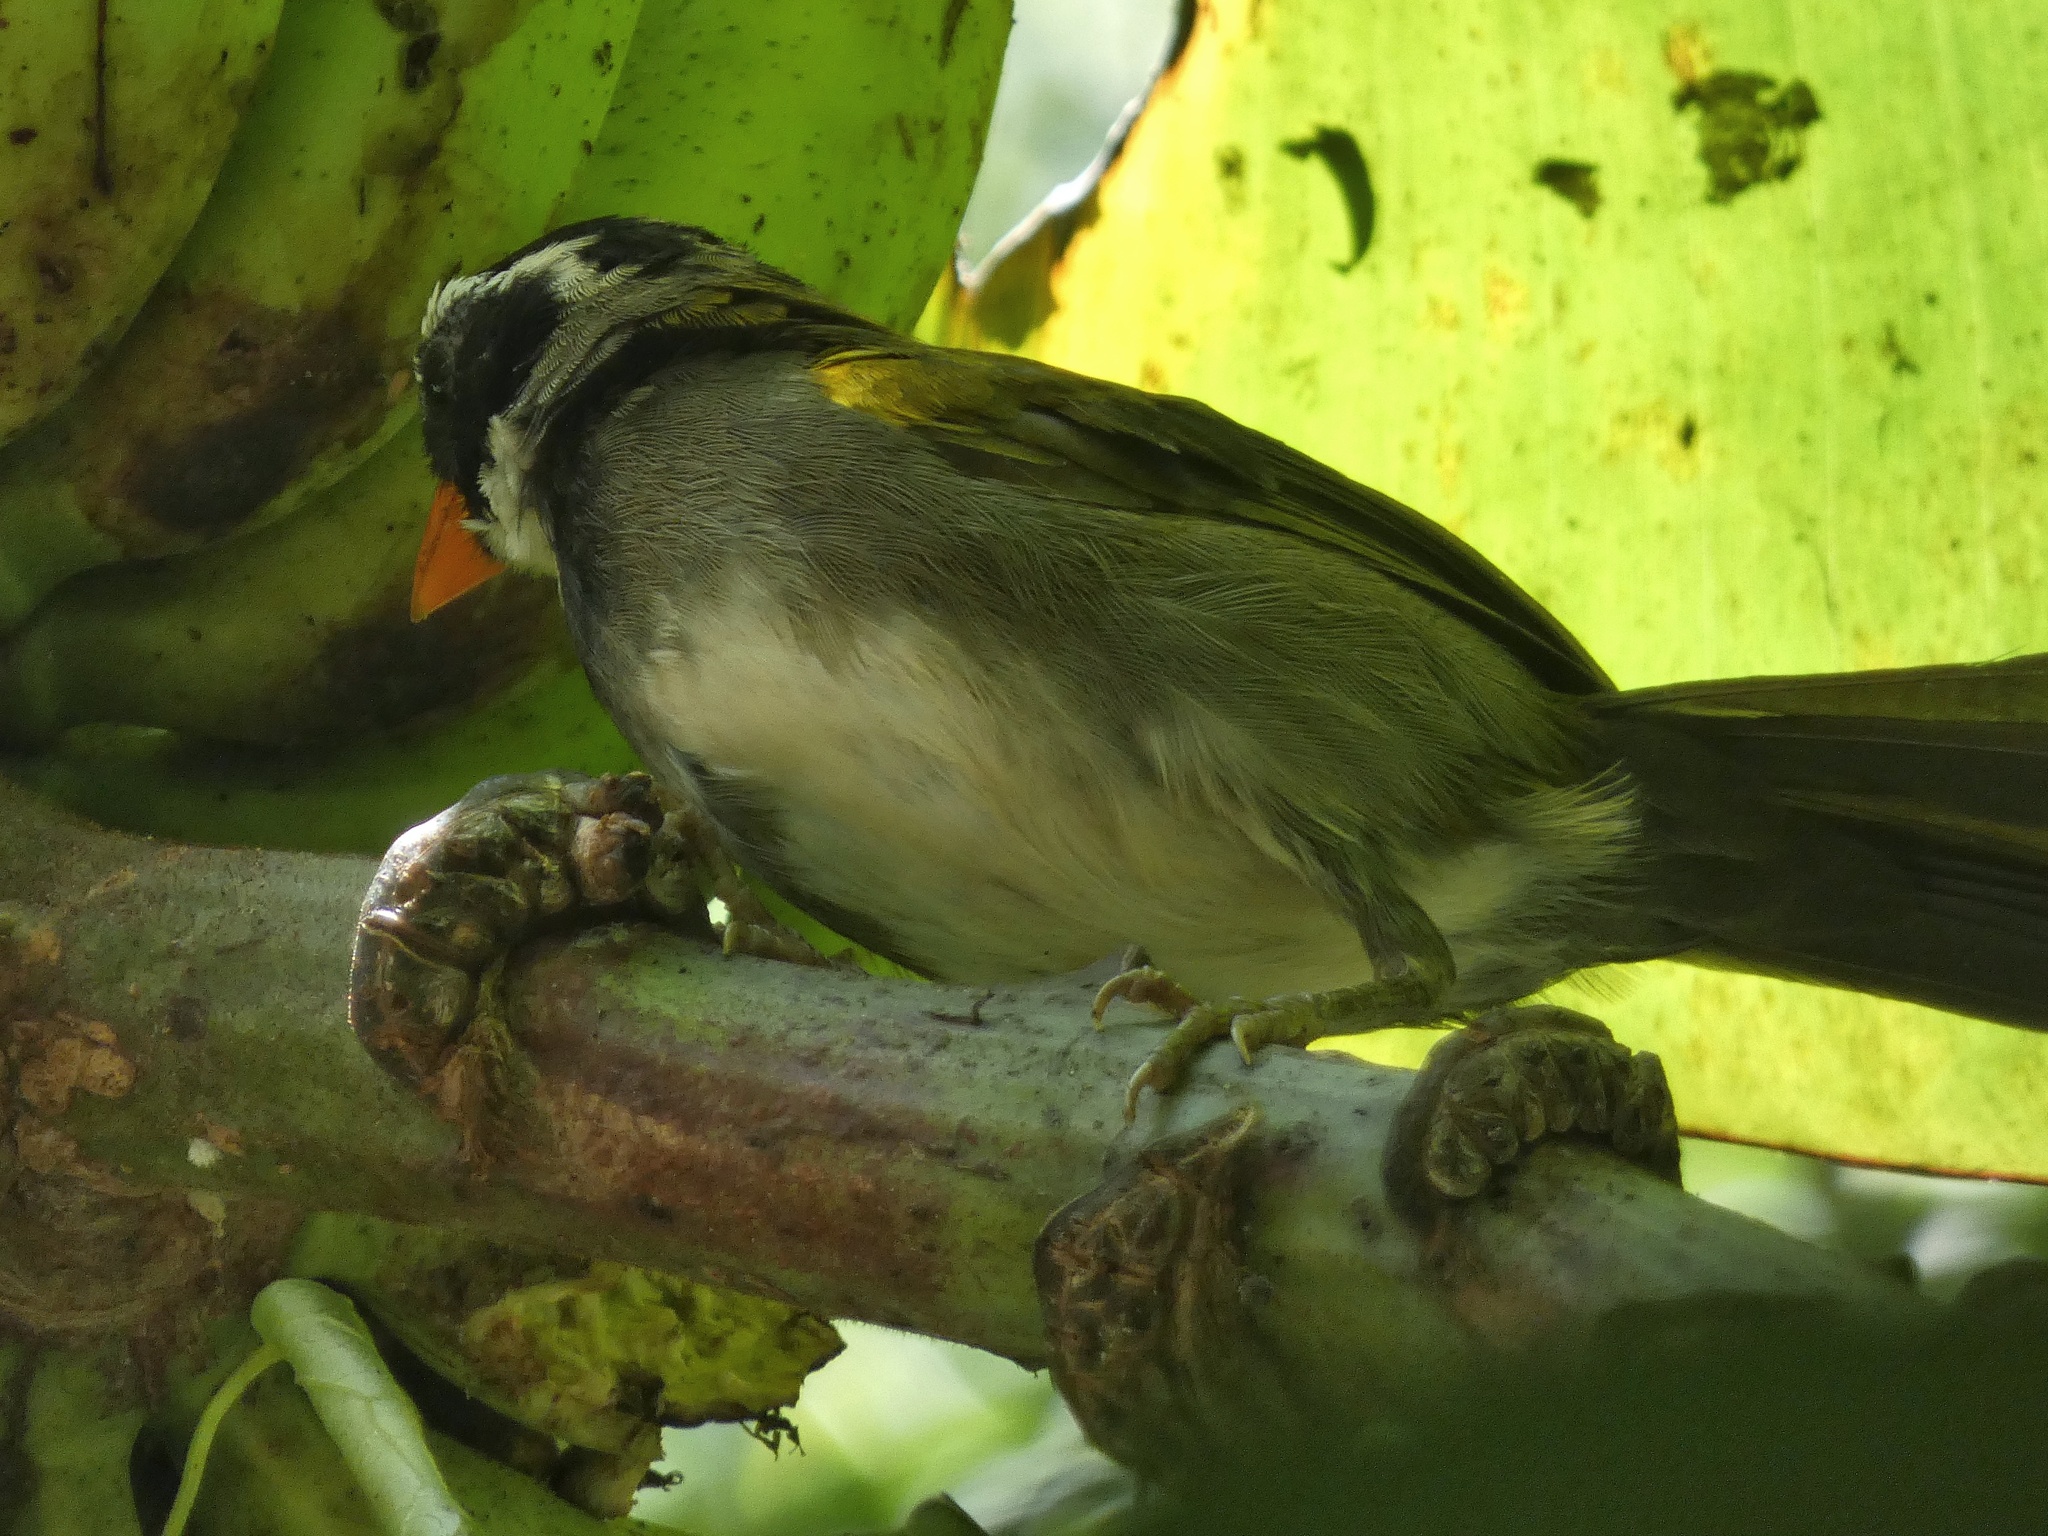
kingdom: Animalia
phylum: Chordata
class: Aves
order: Passeriformes
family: Passerellidae
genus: Arremon
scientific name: Arremon aurantiirostris
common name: Orange-billed sparrow
